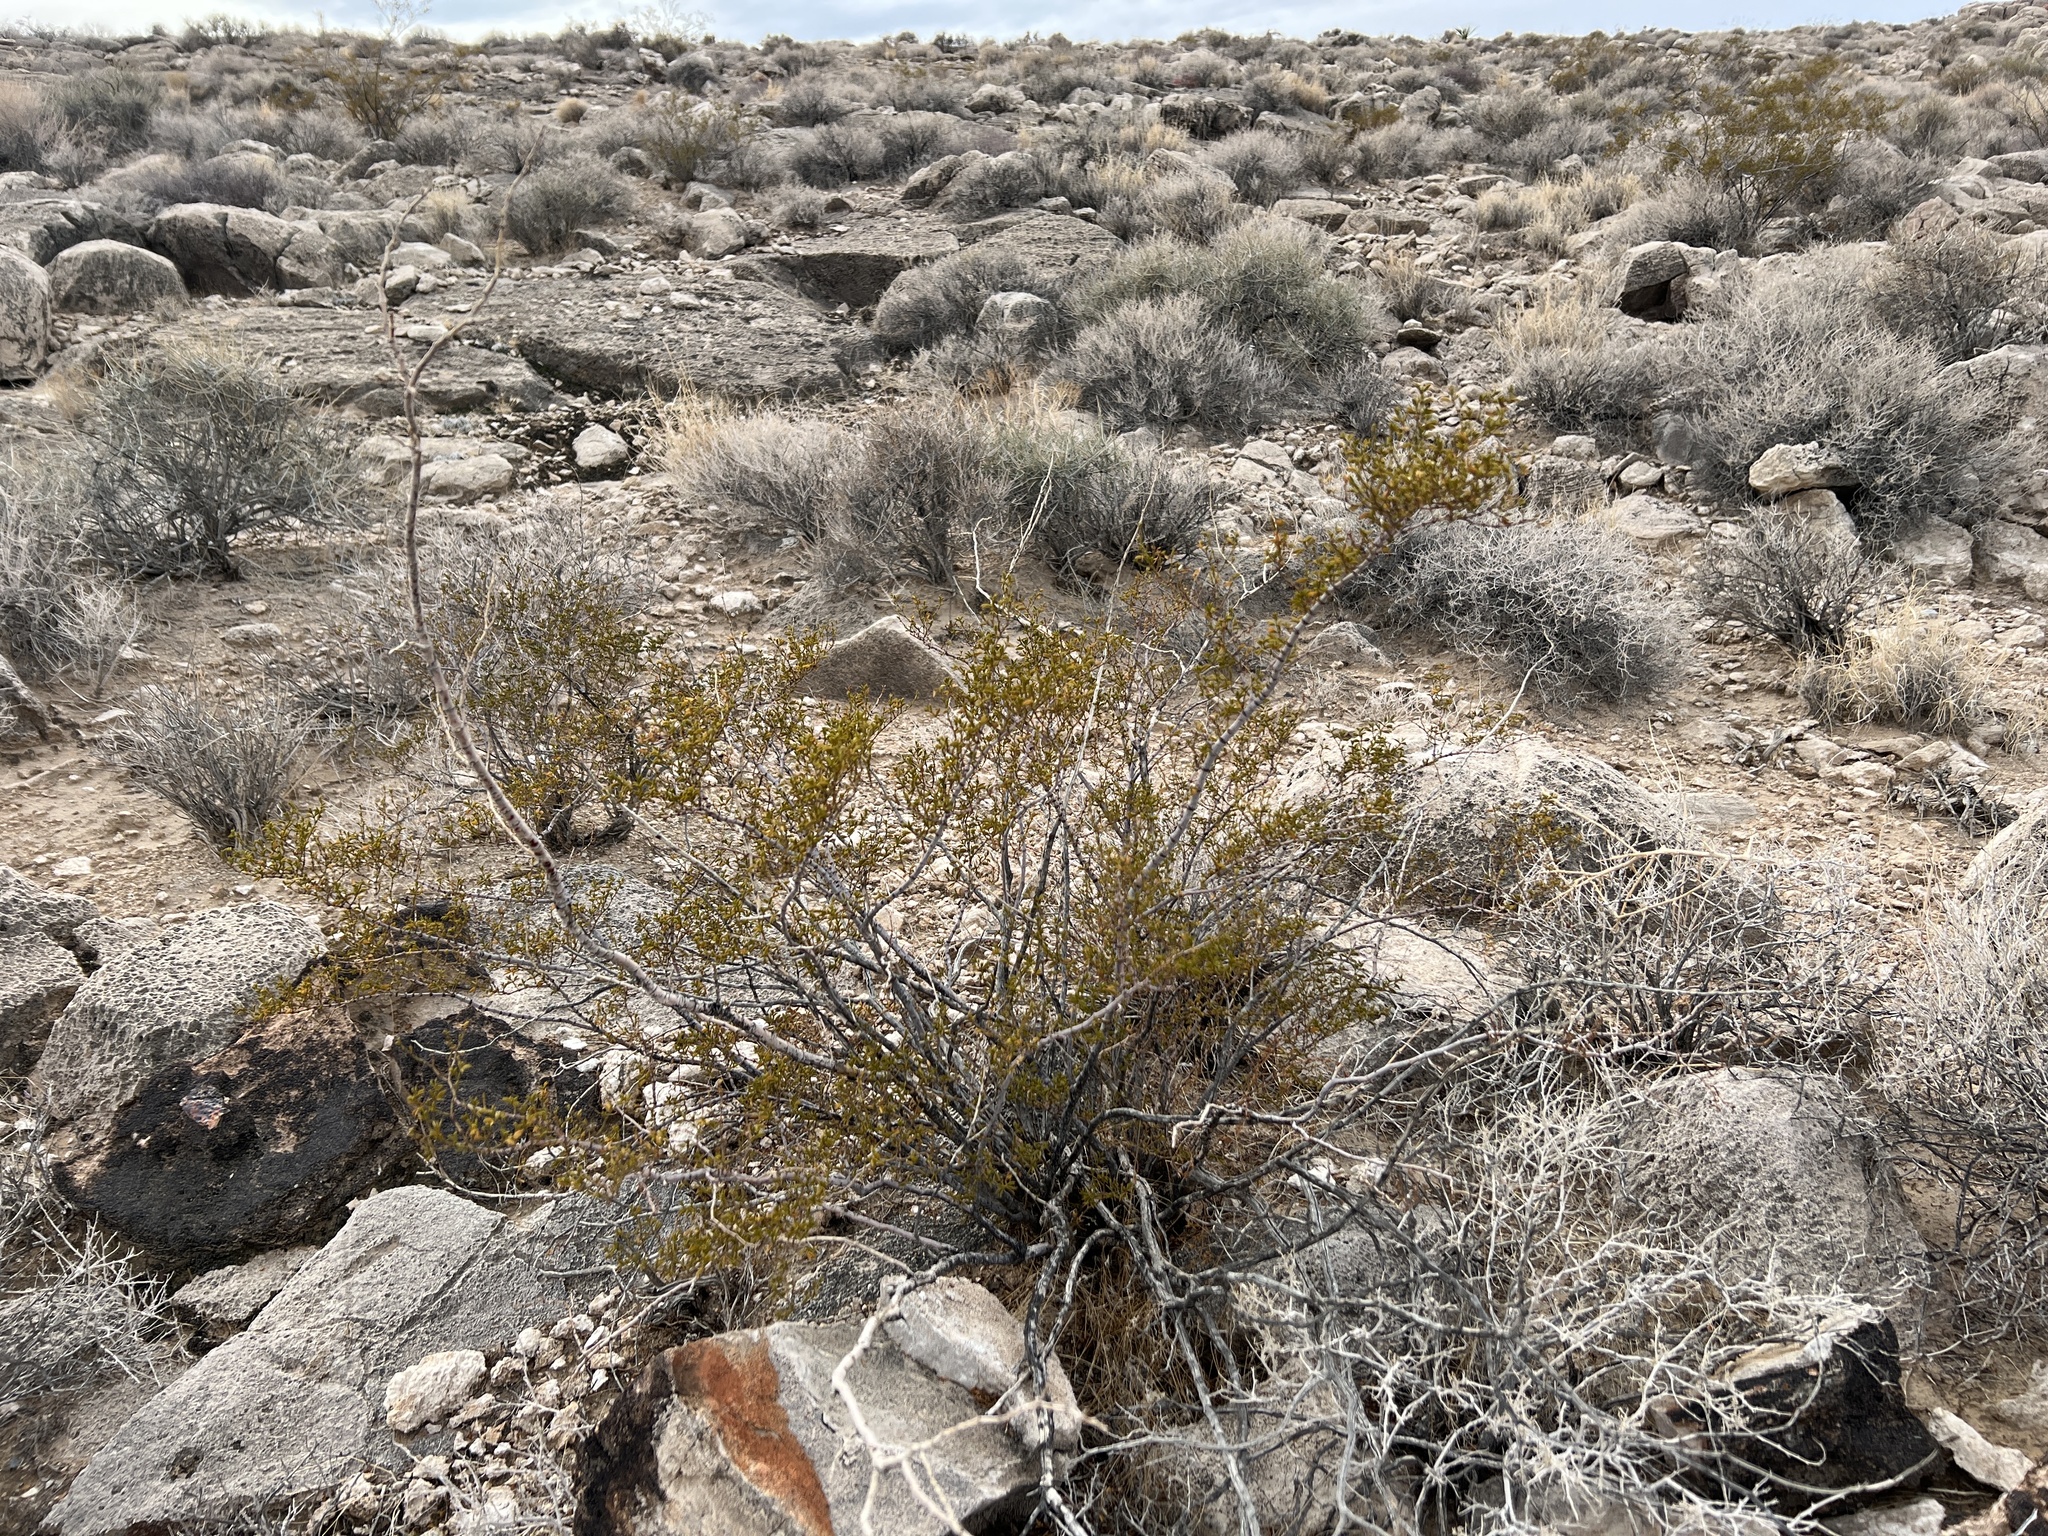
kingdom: Plantae
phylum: Tracheophyta
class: Magnoliopsida
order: Zygophyllales
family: Zygophyllaceae
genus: Larrea
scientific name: Larrea tridentata
